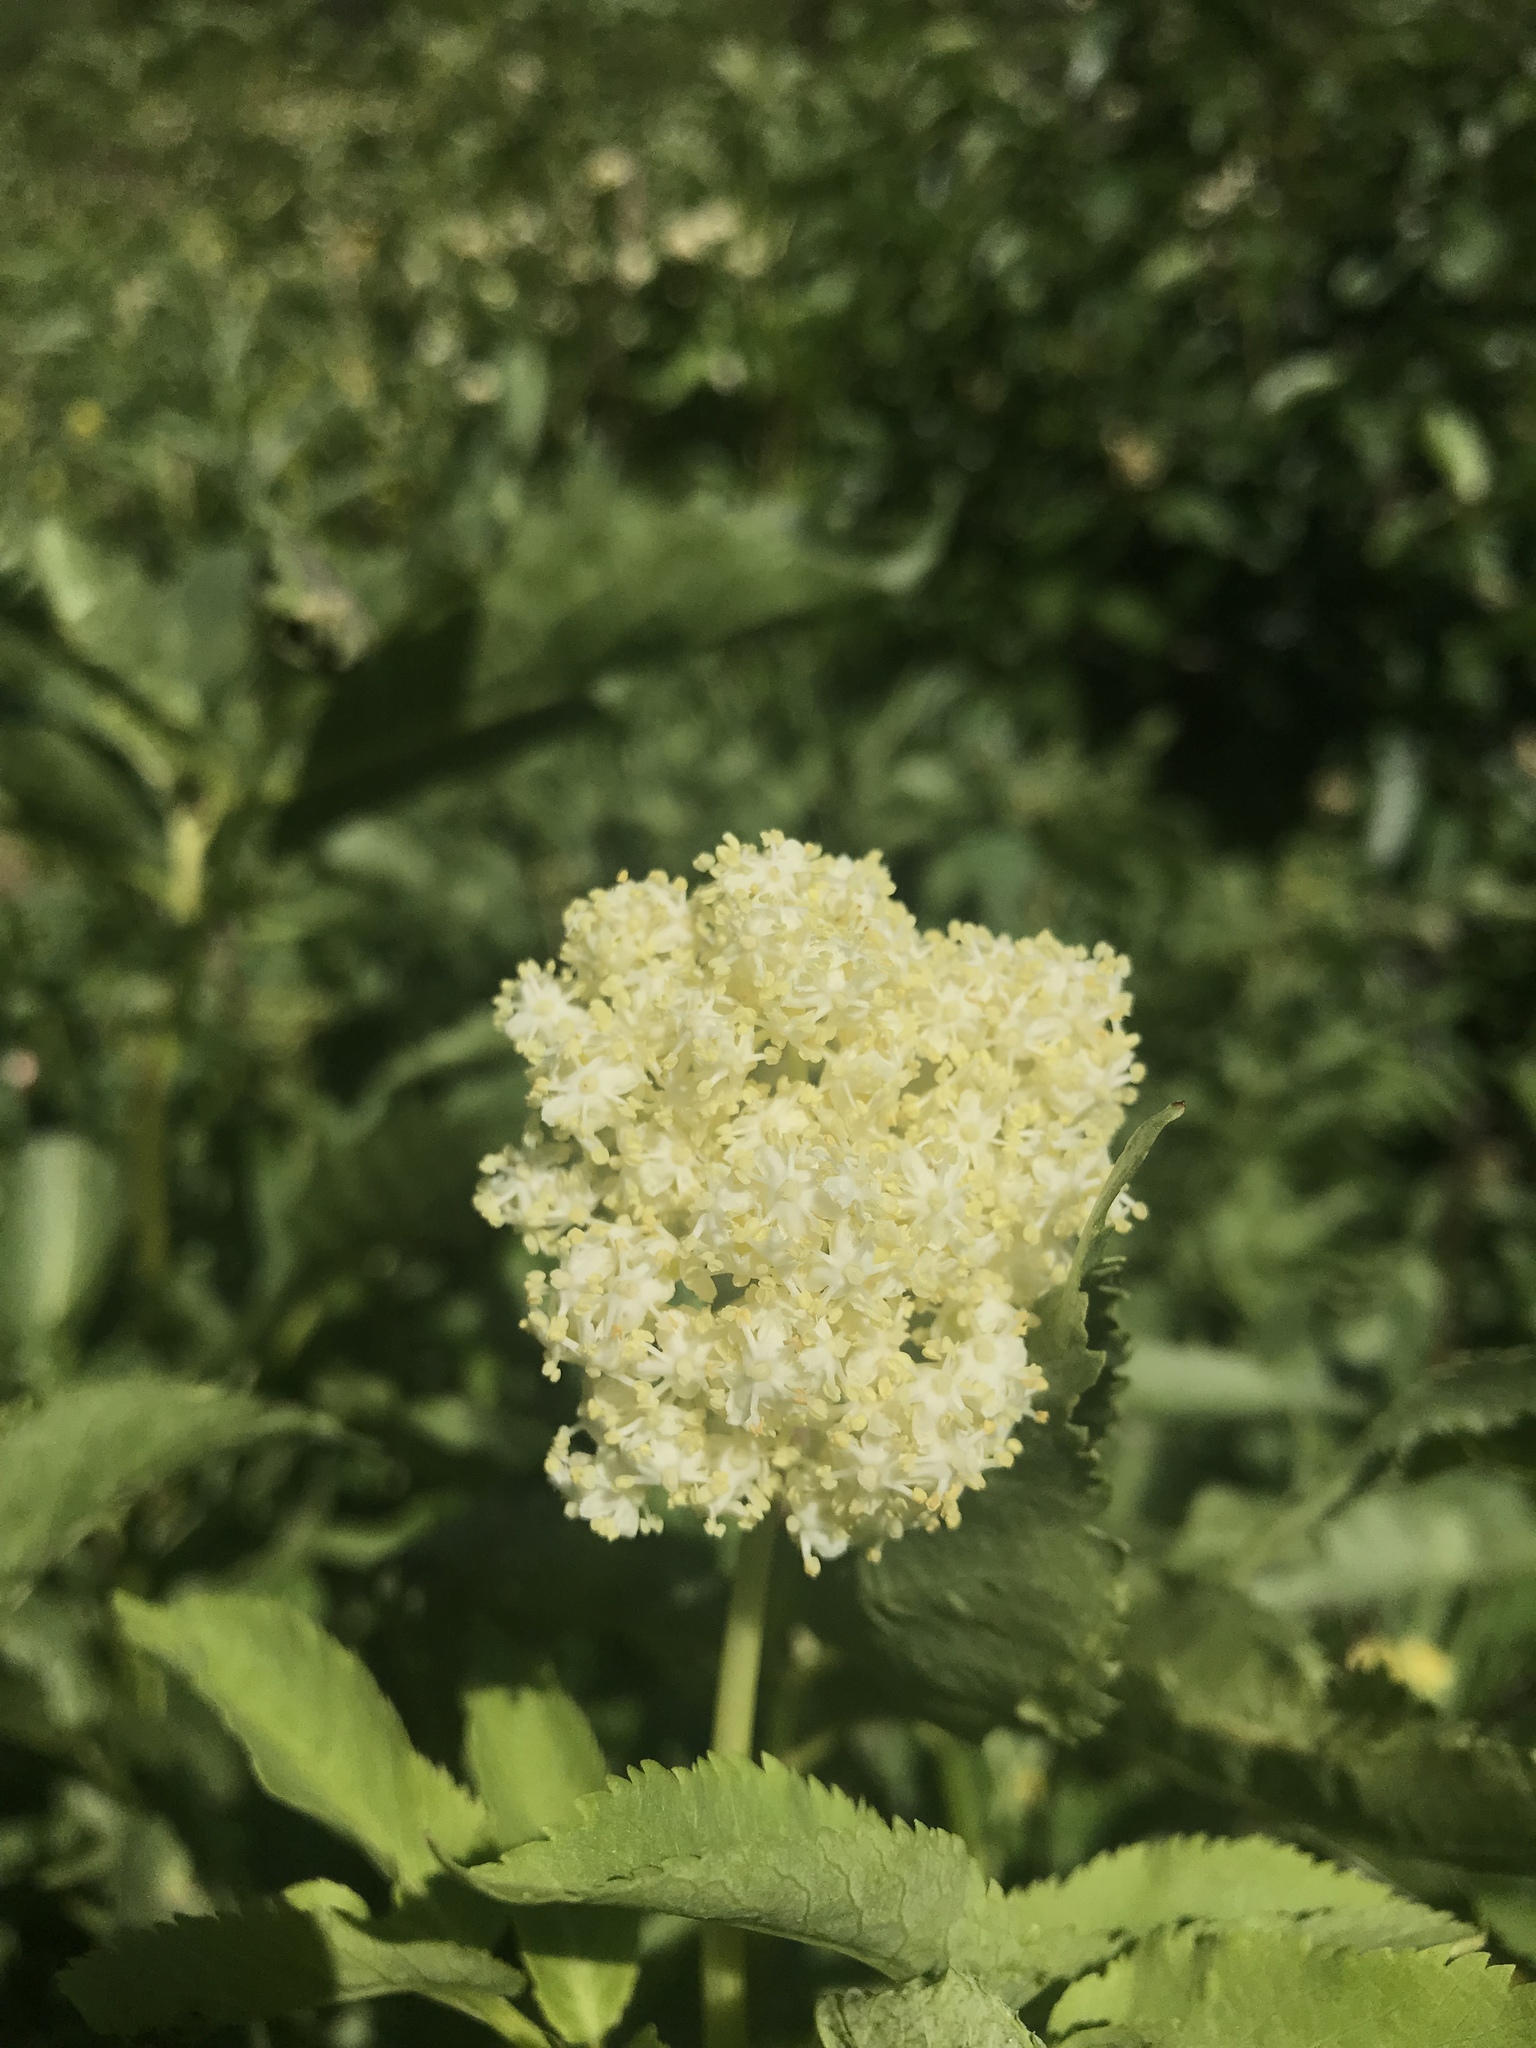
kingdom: Plantae
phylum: Tracheophyta
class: Magnoliopsida
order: Dipsacales
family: Viburnaceae
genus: Sambucus
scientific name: Sambucus racemosa
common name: Red-berried elder
